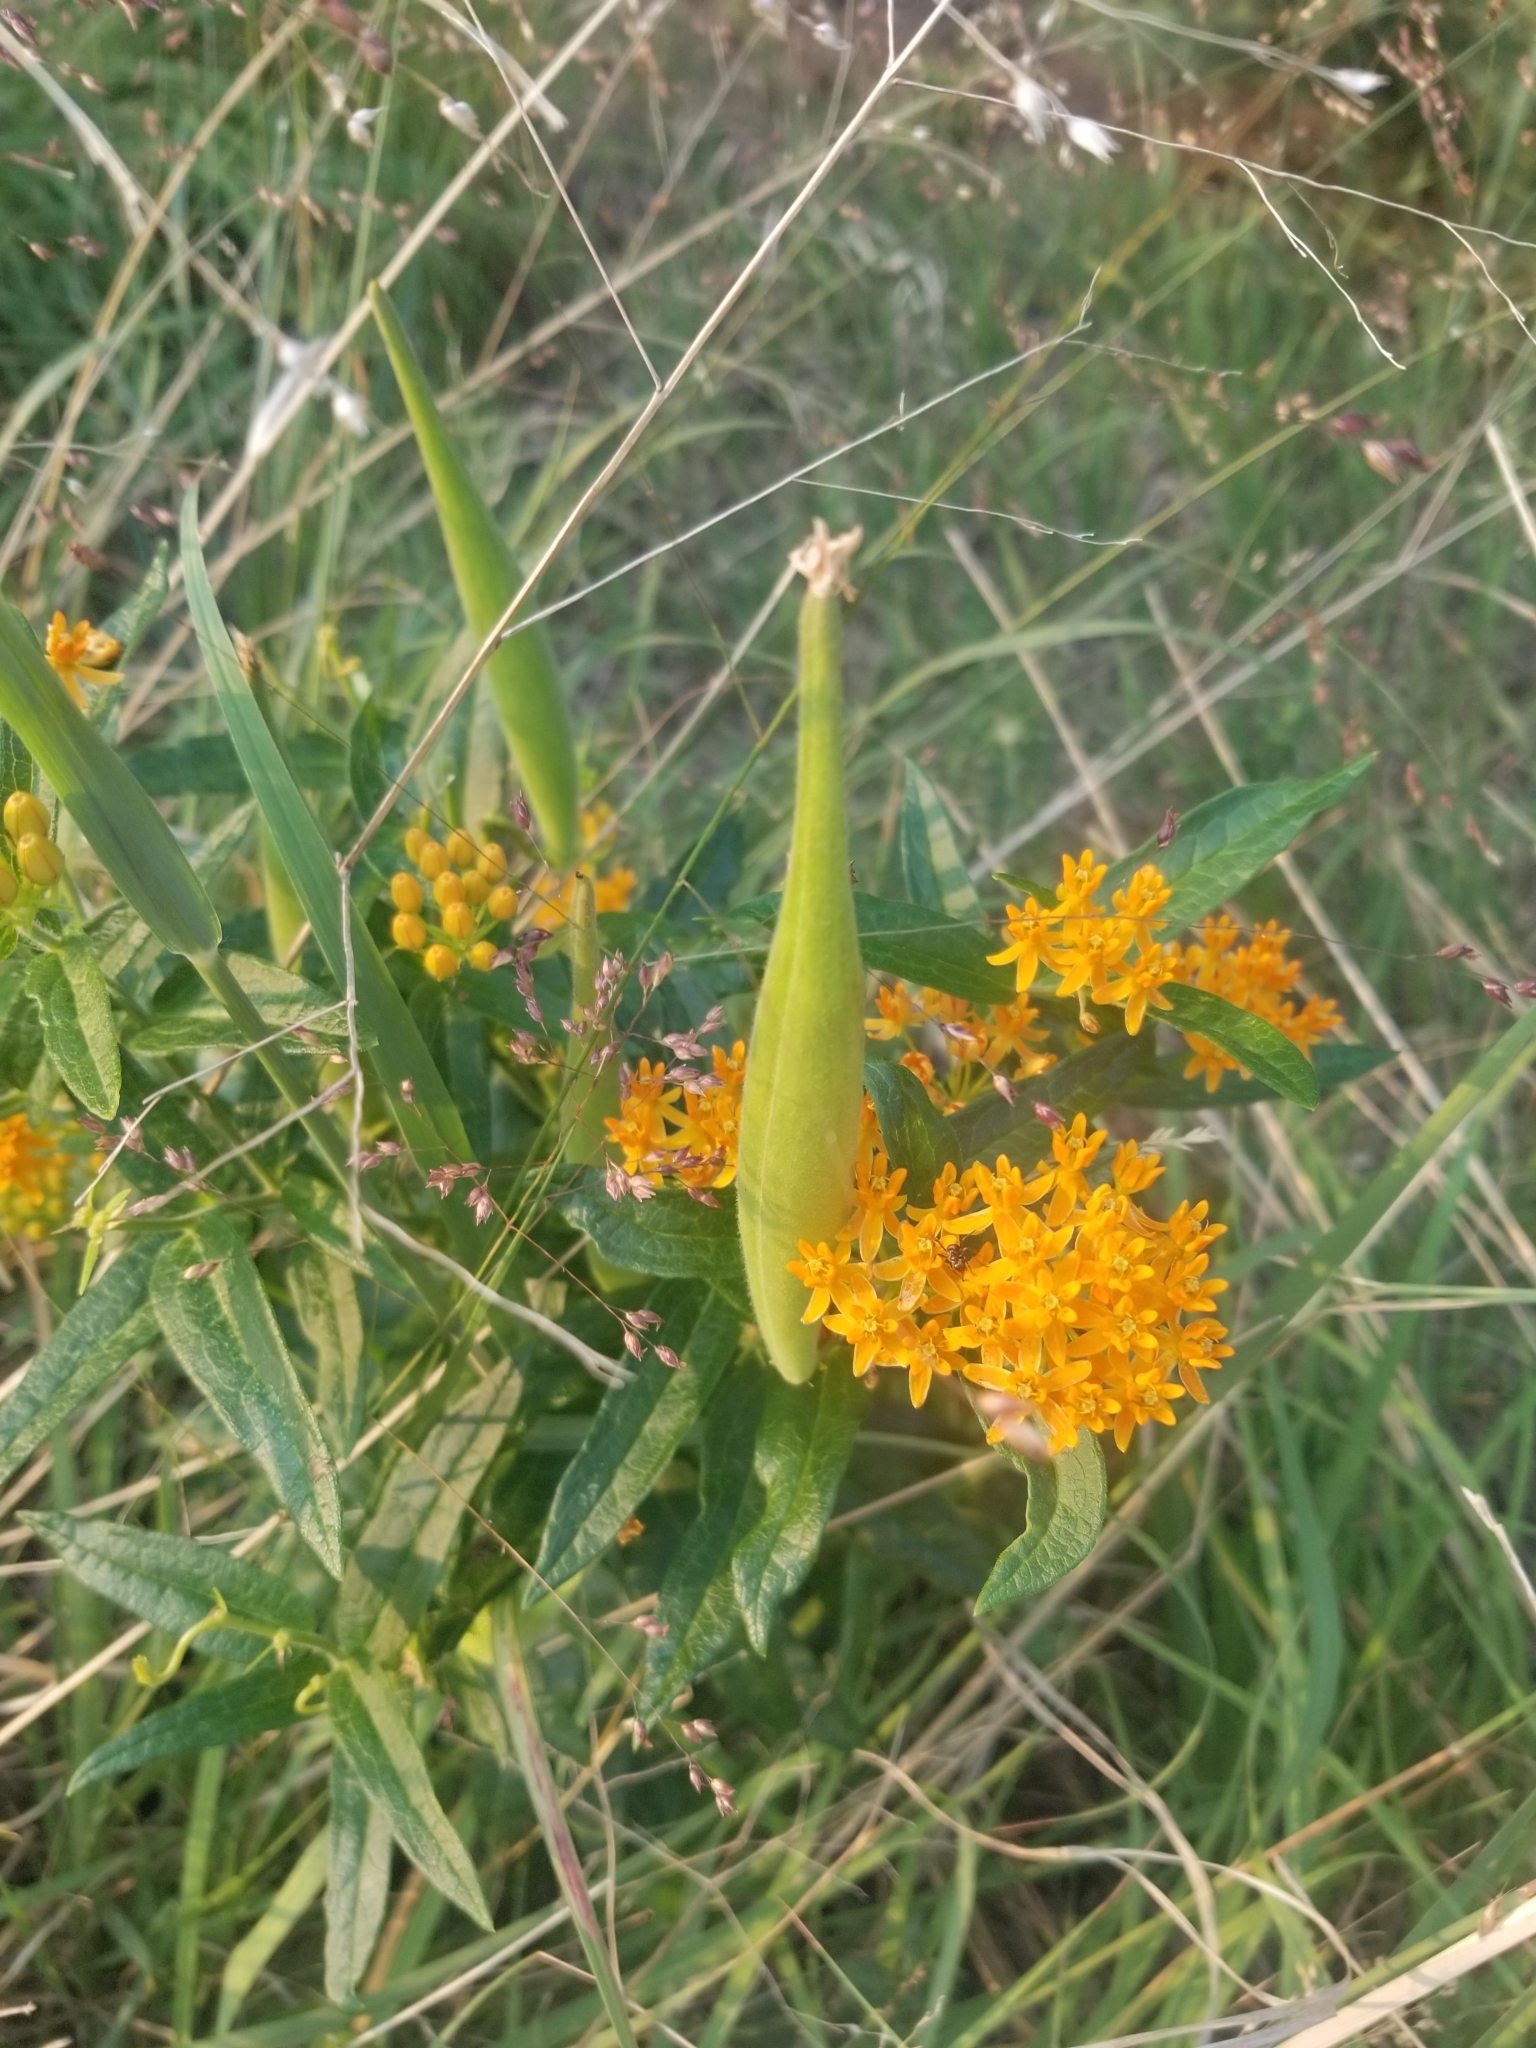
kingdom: Plantae
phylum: Tracheophyta
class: Magnoliopsida
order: Gentianales
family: Apocynaceae
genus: Asclepias
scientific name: Asclepias tuberosa
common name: Butterfly milkweed
